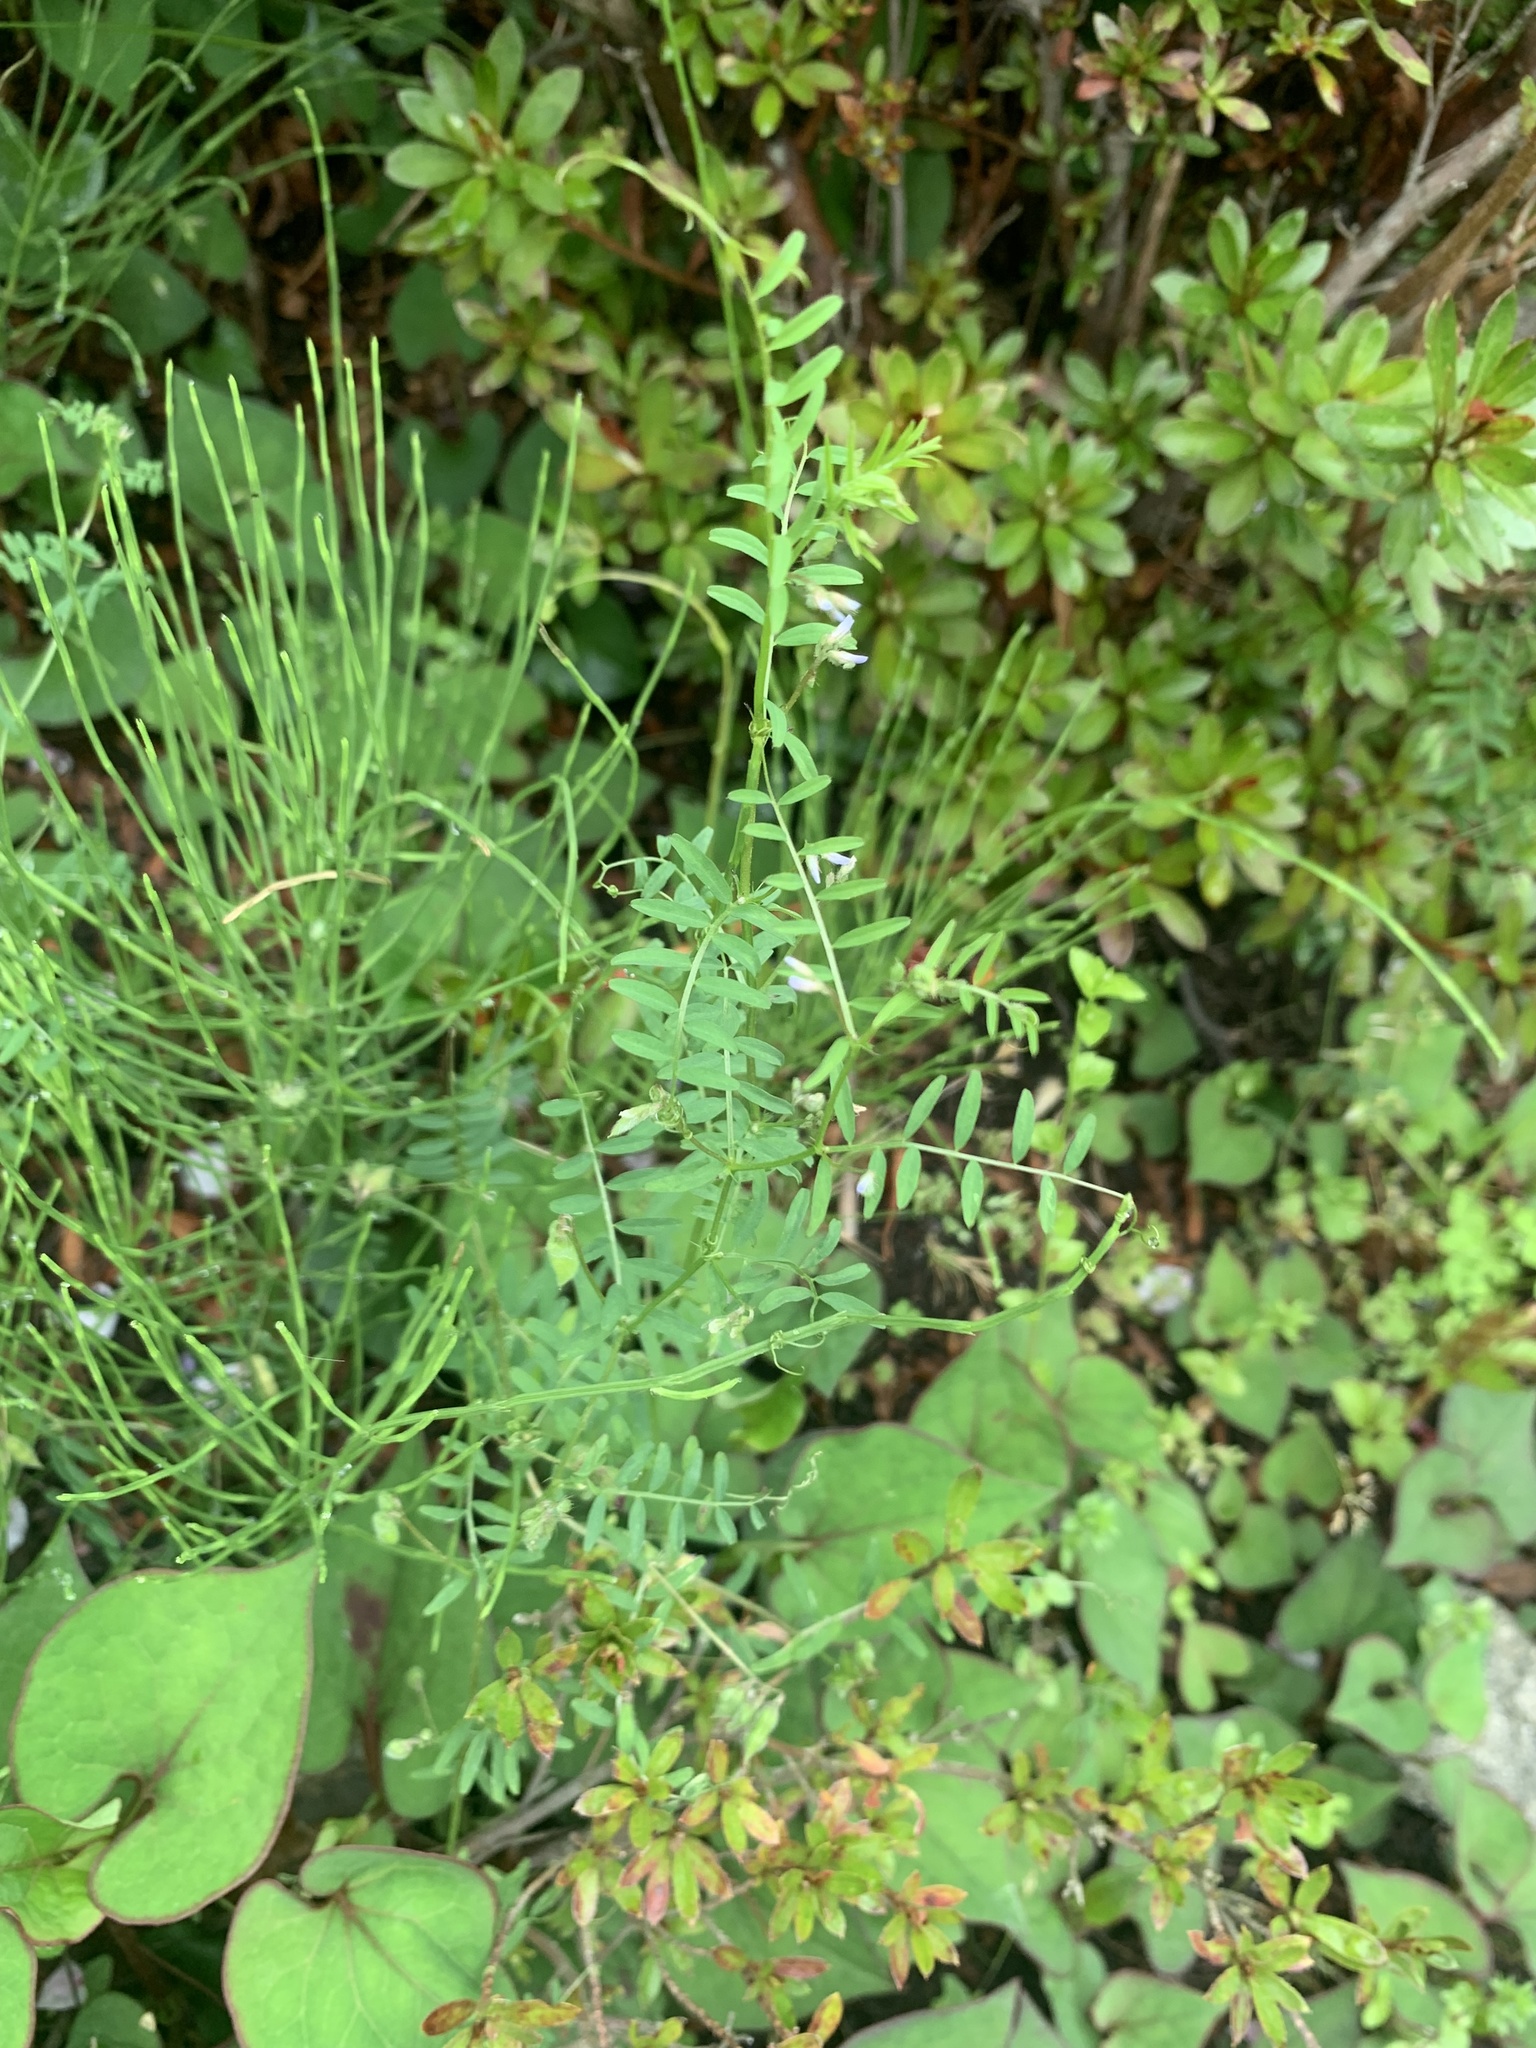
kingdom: Plantae
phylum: Tracheophyta
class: Magnoliopsida
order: Fabales
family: Fabaceae
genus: Vicia
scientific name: Vicia hirsuta
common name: Tiny vetch
